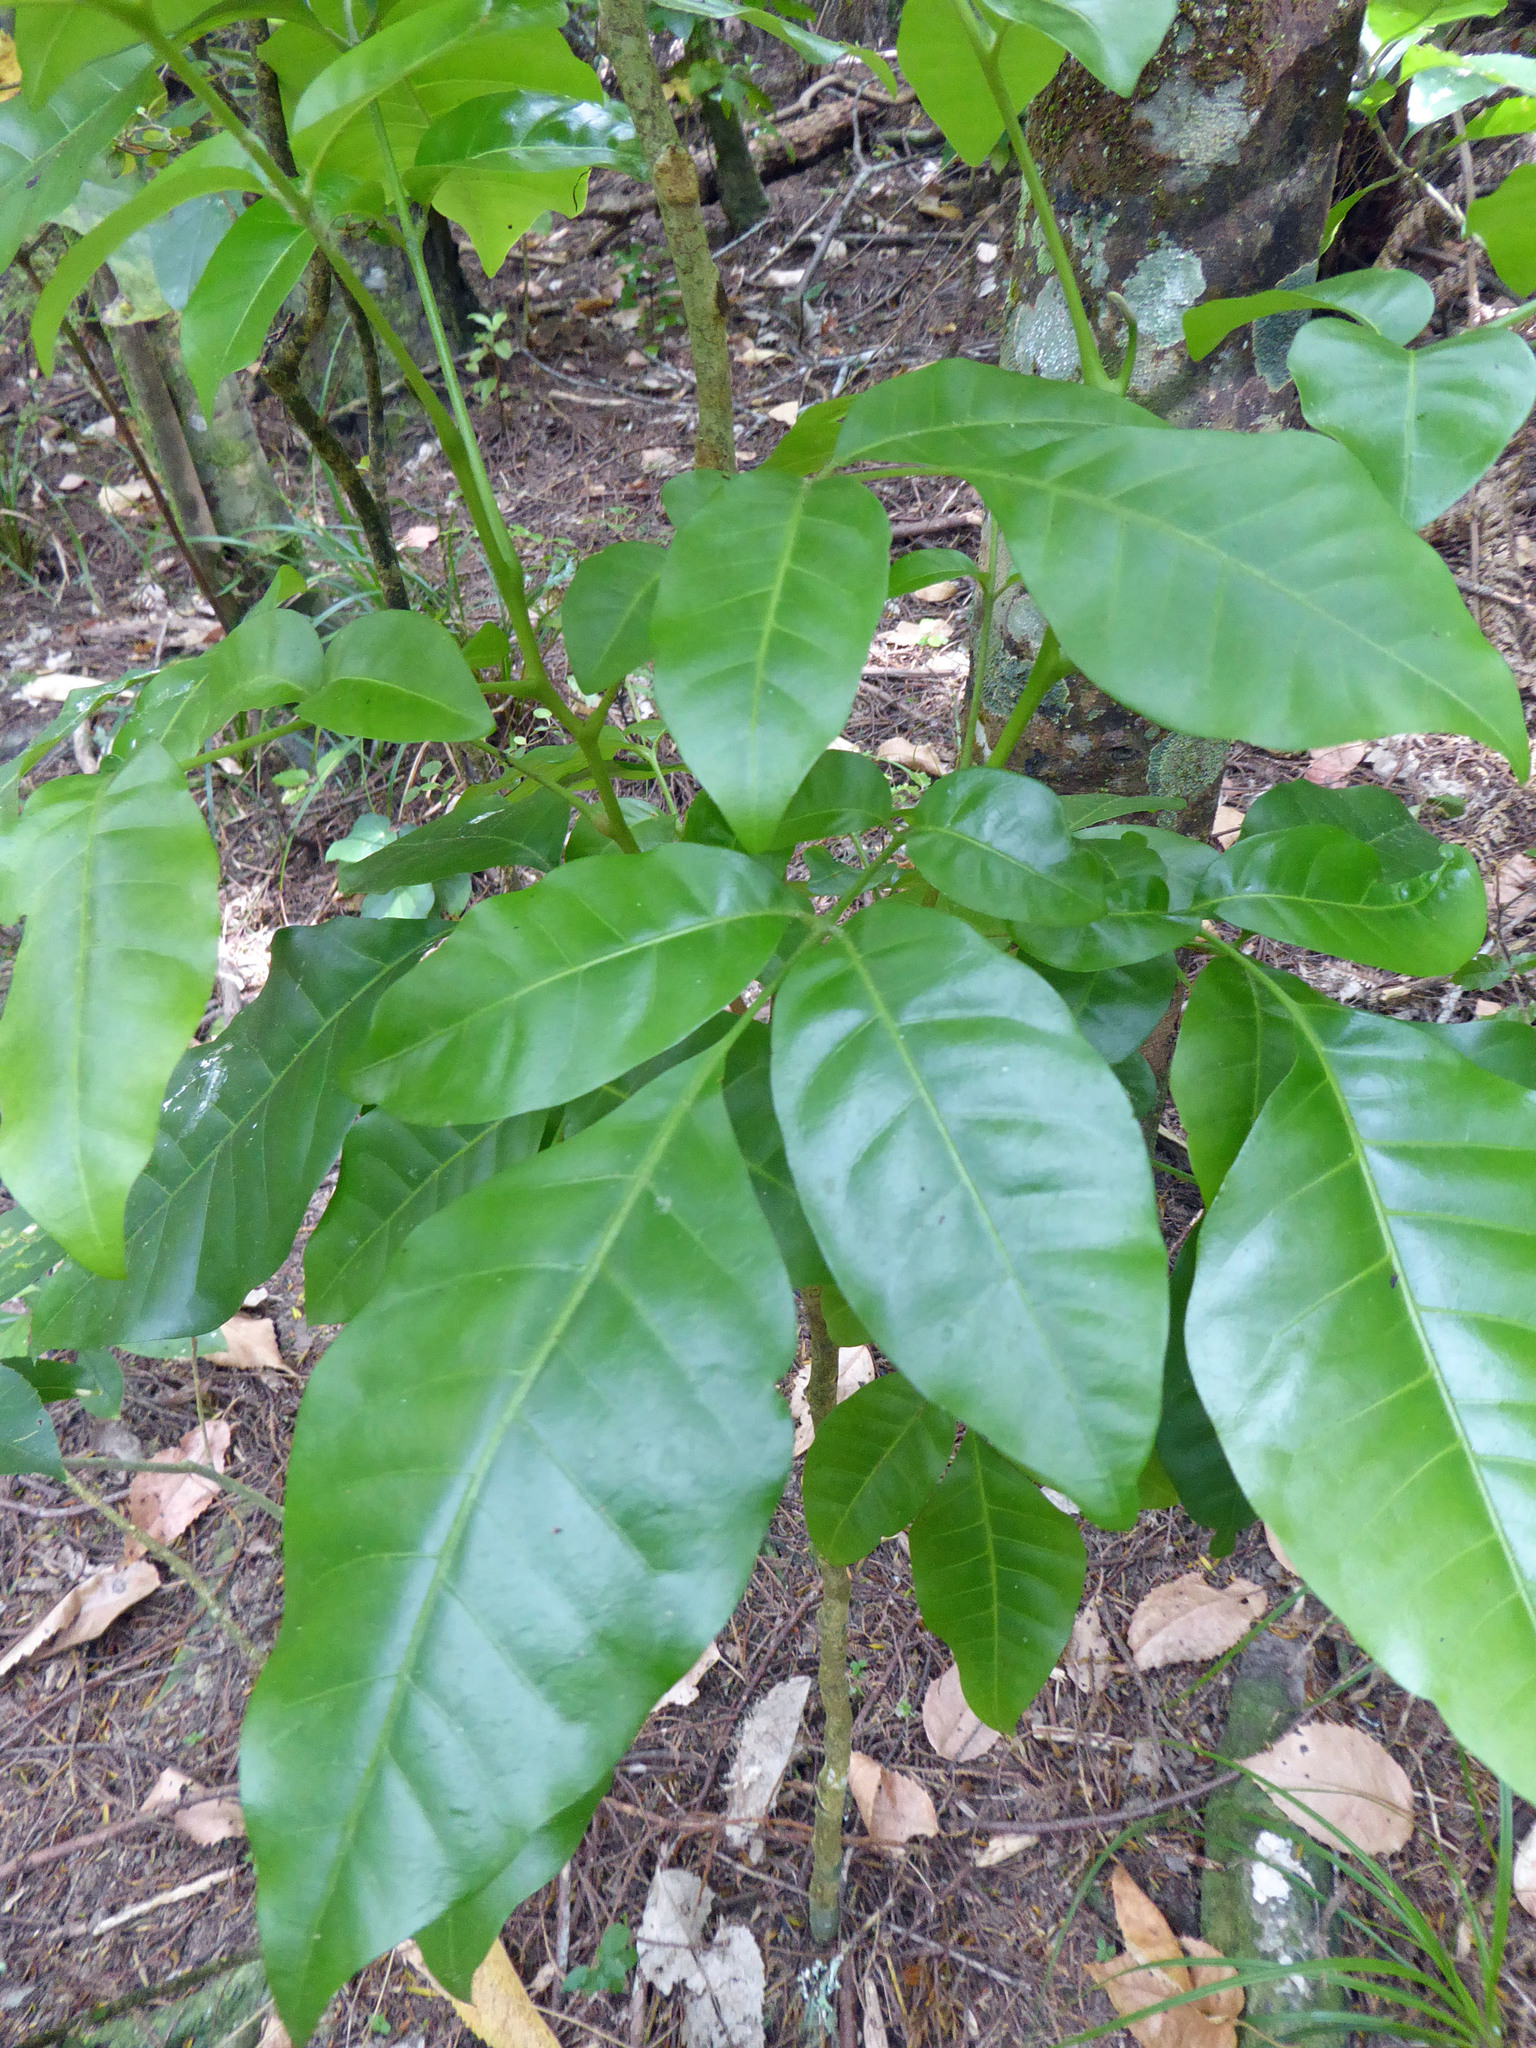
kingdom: Plantae
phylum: Tracheophyta
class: Magnoliopsida
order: Sapindales
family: Meliaceae
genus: Didymocheton
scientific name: Didymocheton spectabilis
